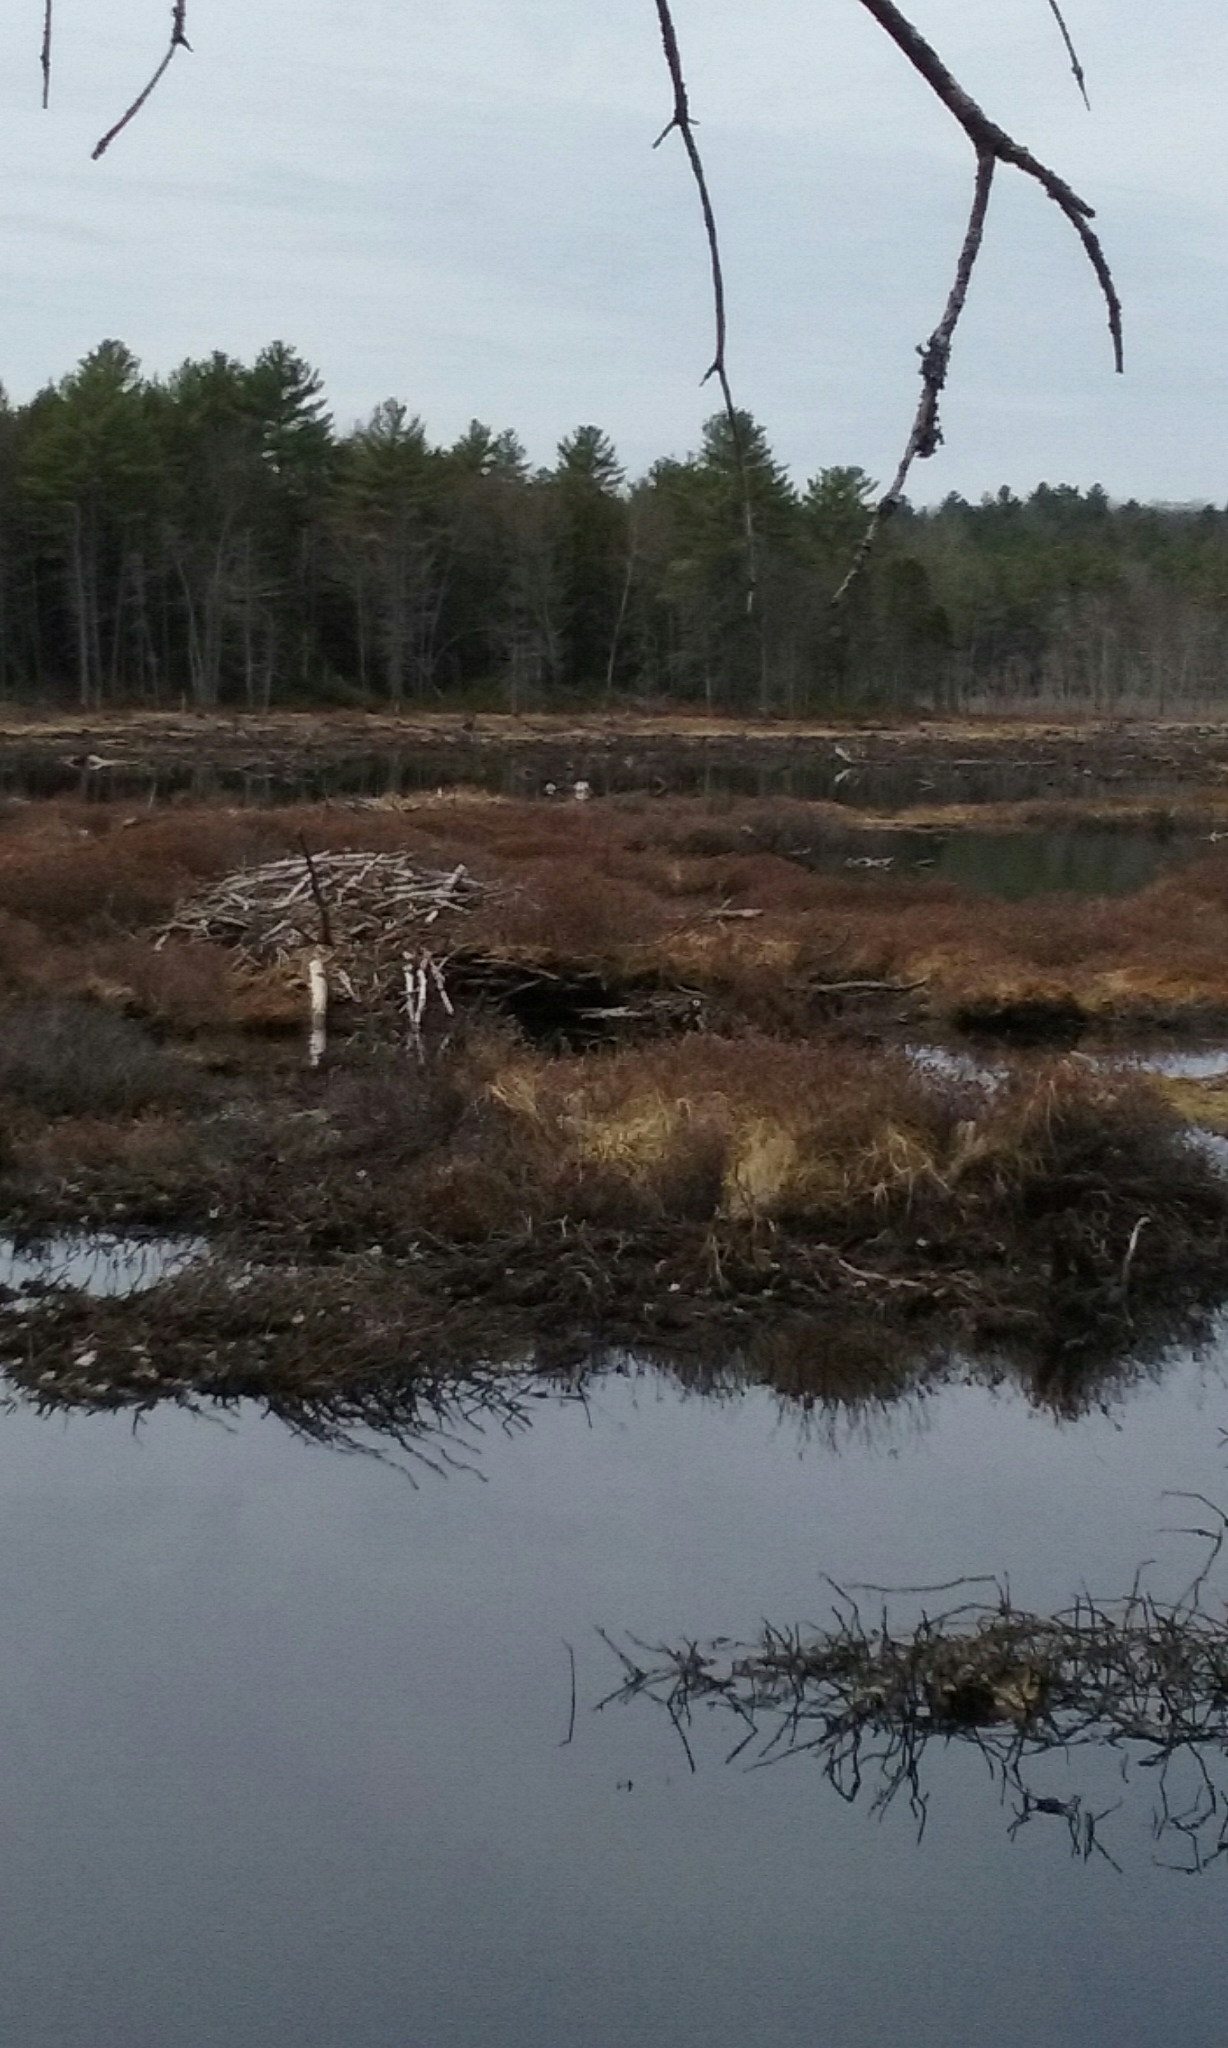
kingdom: Animalia
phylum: Chordata
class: Mammalia
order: Rodentia
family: Castoridae
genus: Castor
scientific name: Castor canadensis
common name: American beaver
